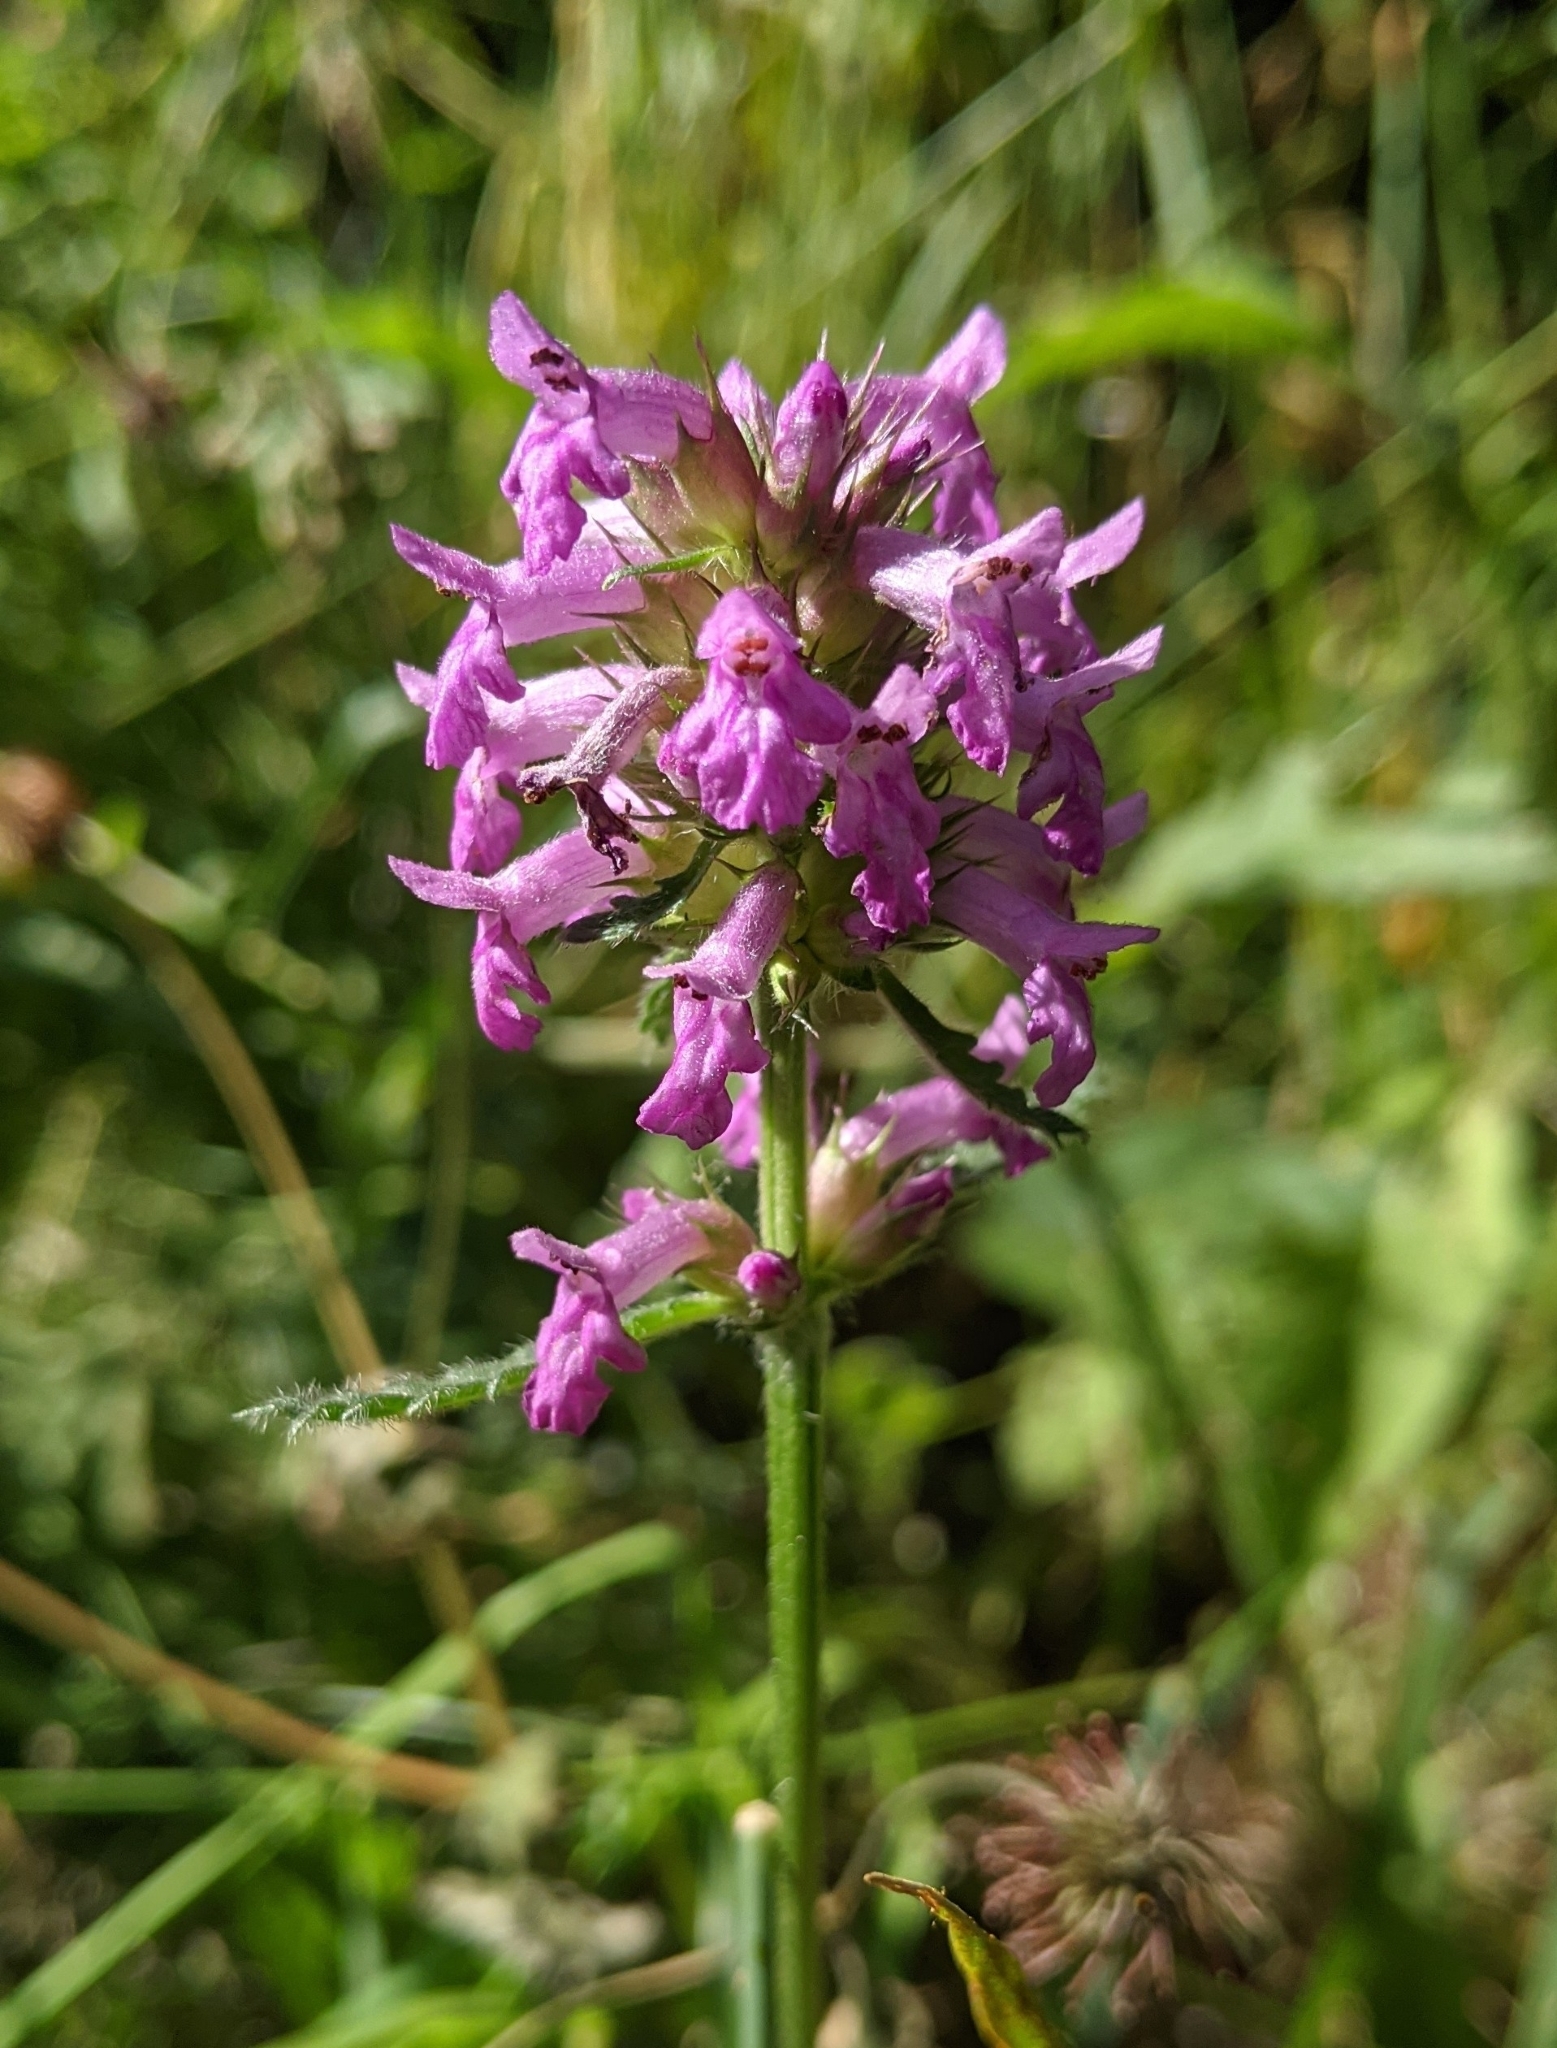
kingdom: Plantae
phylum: Tracheophyta
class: Magnoliopsida
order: Lamiales
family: Lamiaceae
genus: Betonica
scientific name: Betonica officinalis
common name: Bishop's-wort
